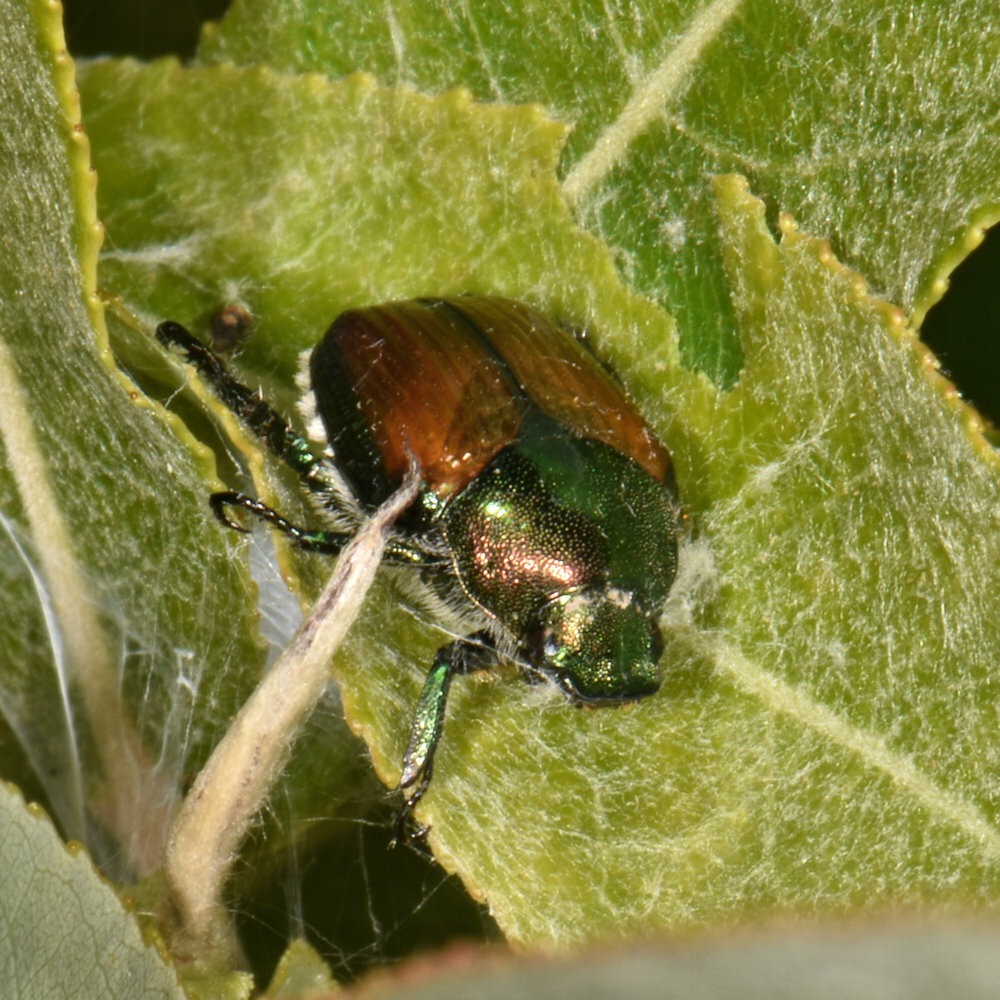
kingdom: Animalia
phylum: Arthropoda
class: Insecta
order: Coleoptera
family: Scarabaeidae
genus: Popillia
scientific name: Popillia japonica
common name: Japanese beetle
